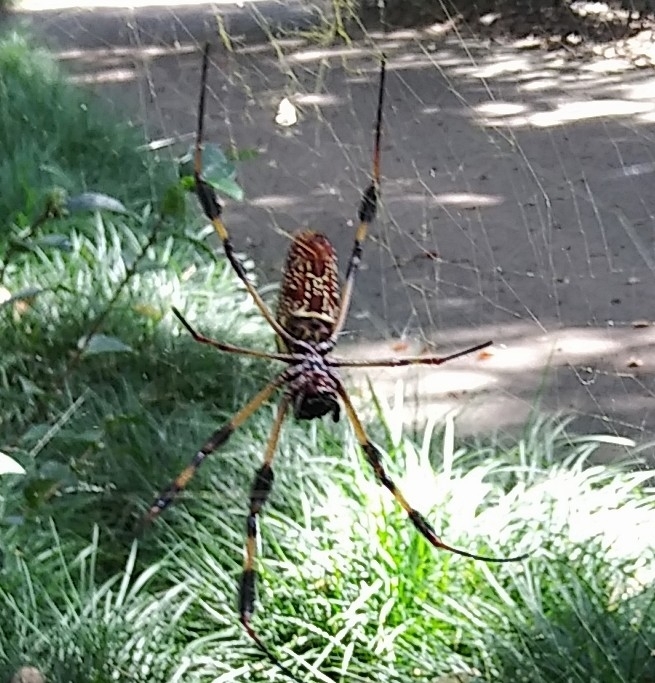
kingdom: Animalia
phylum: Arthropoda
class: Arachnida
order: Araneae
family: Araneidae
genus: Trichonephila
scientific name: Trichonephila clavipes
